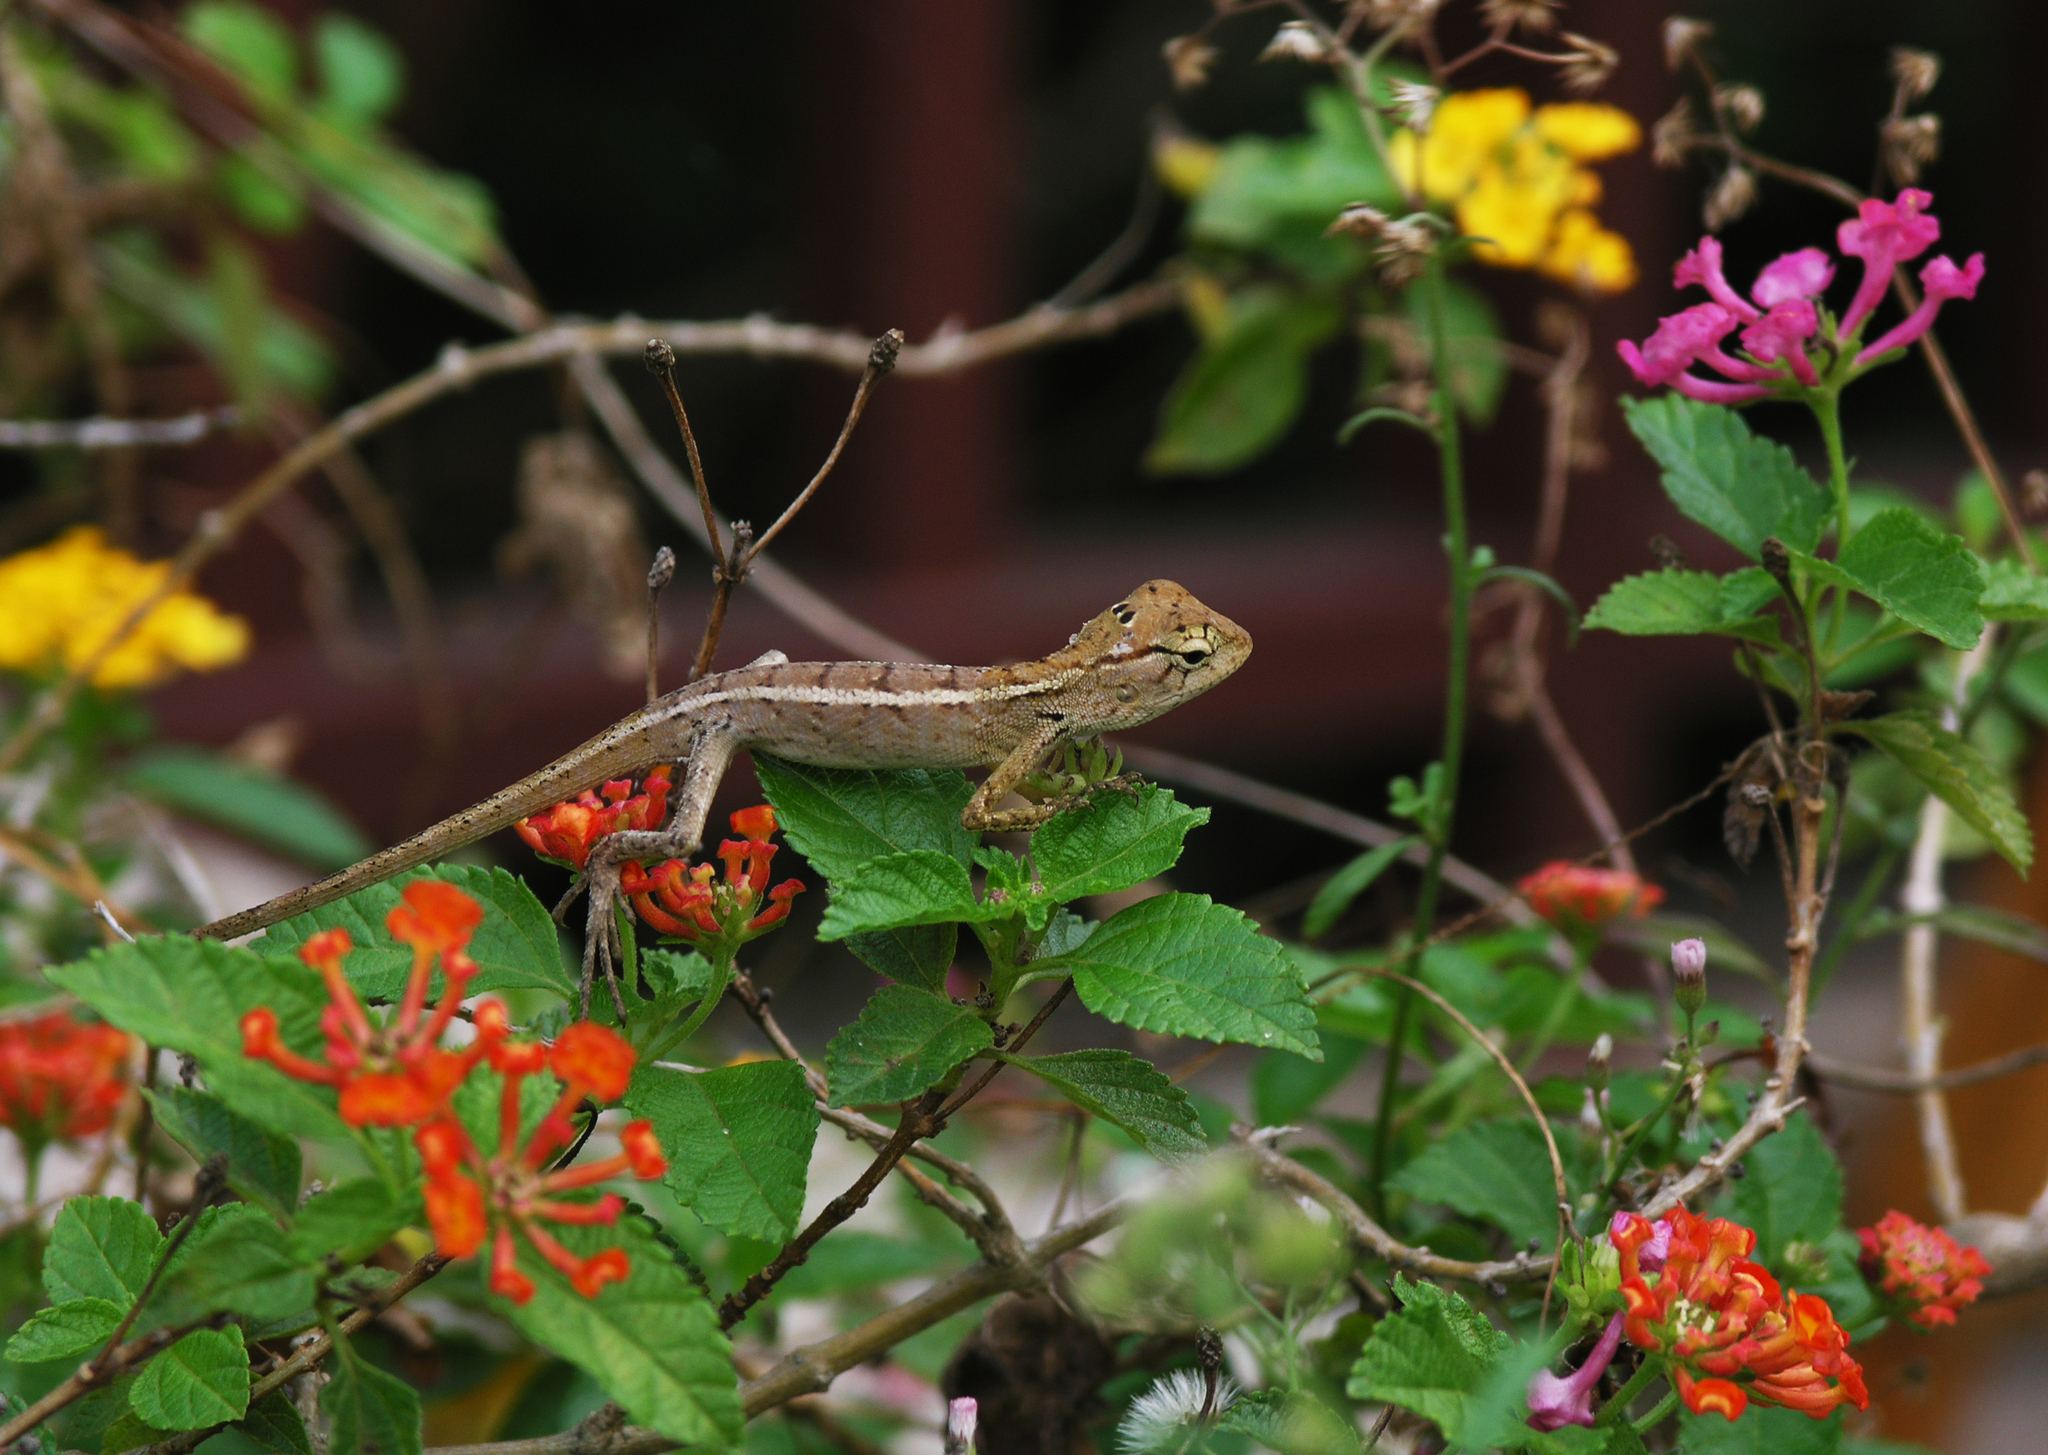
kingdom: Animalia
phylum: Chordata
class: Squamata
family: Agamidae
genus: Calotes
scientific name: Calotes versicolor
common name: Oriental garden lizard
